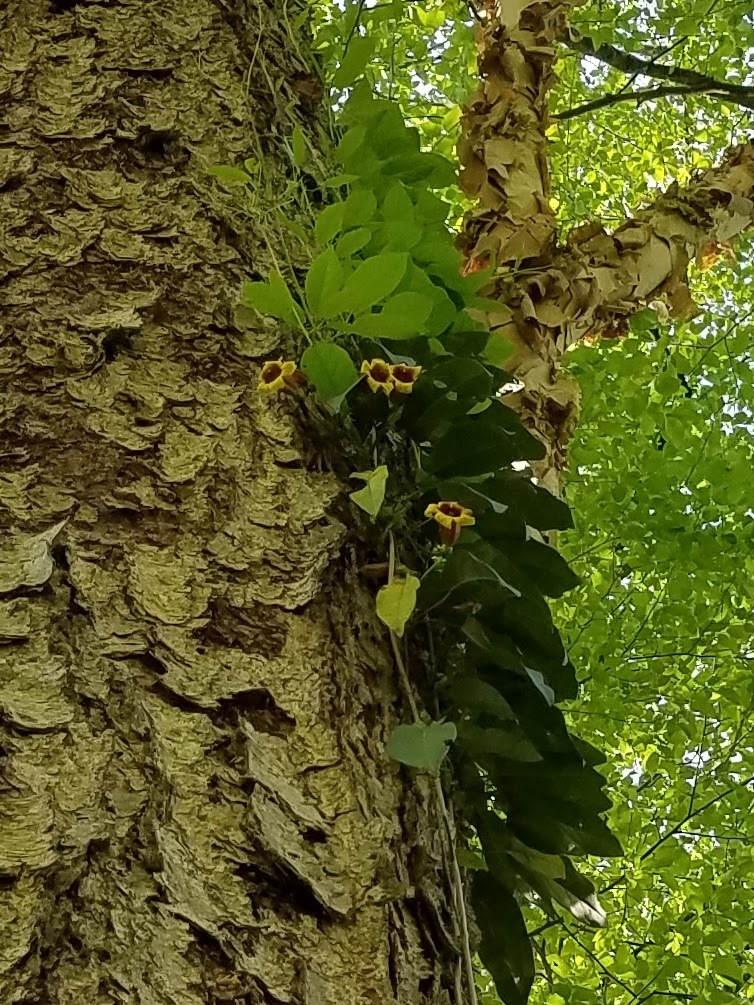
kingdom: Plantae
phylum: Tracheophyta
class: Magnoliopsida
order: Lamiales
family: Bignoniaceae
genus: Bignonia
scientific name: Bignonia capreolata
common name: Crossvine
